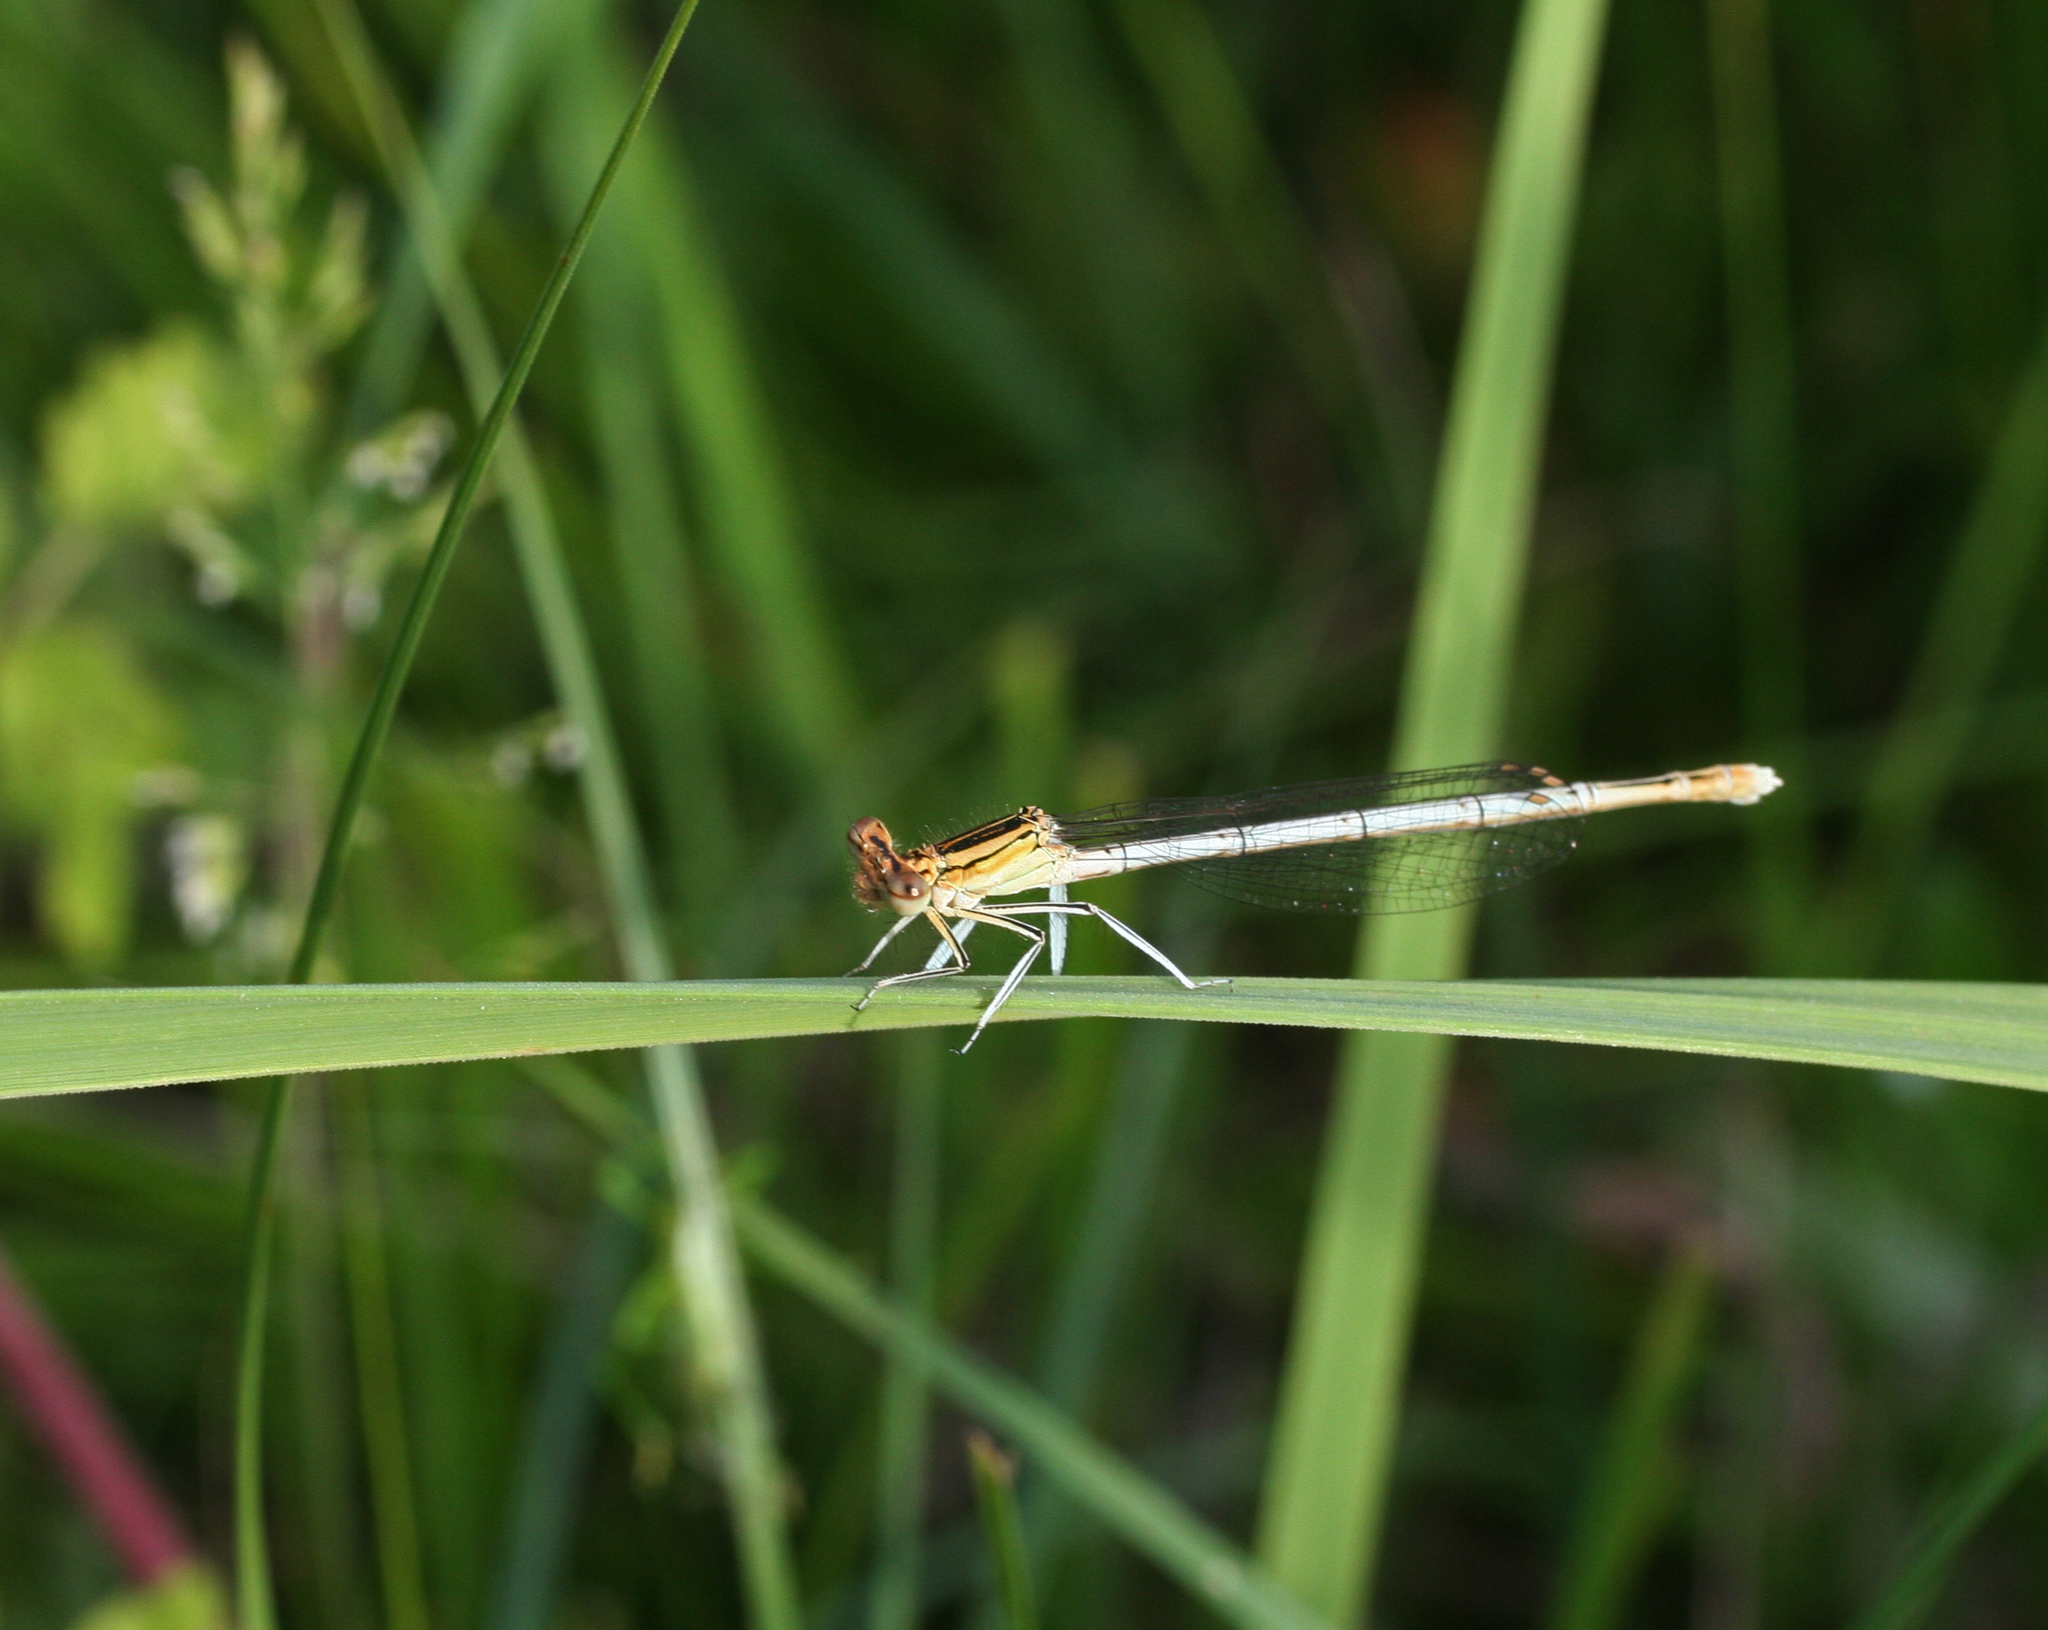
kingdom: Animalia
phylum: Arthropoda
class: Insecta
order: Odonata
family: Platycnemididae
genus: Platycnemis
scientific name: Platycnemis pennipes
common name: White-legged damselfly
